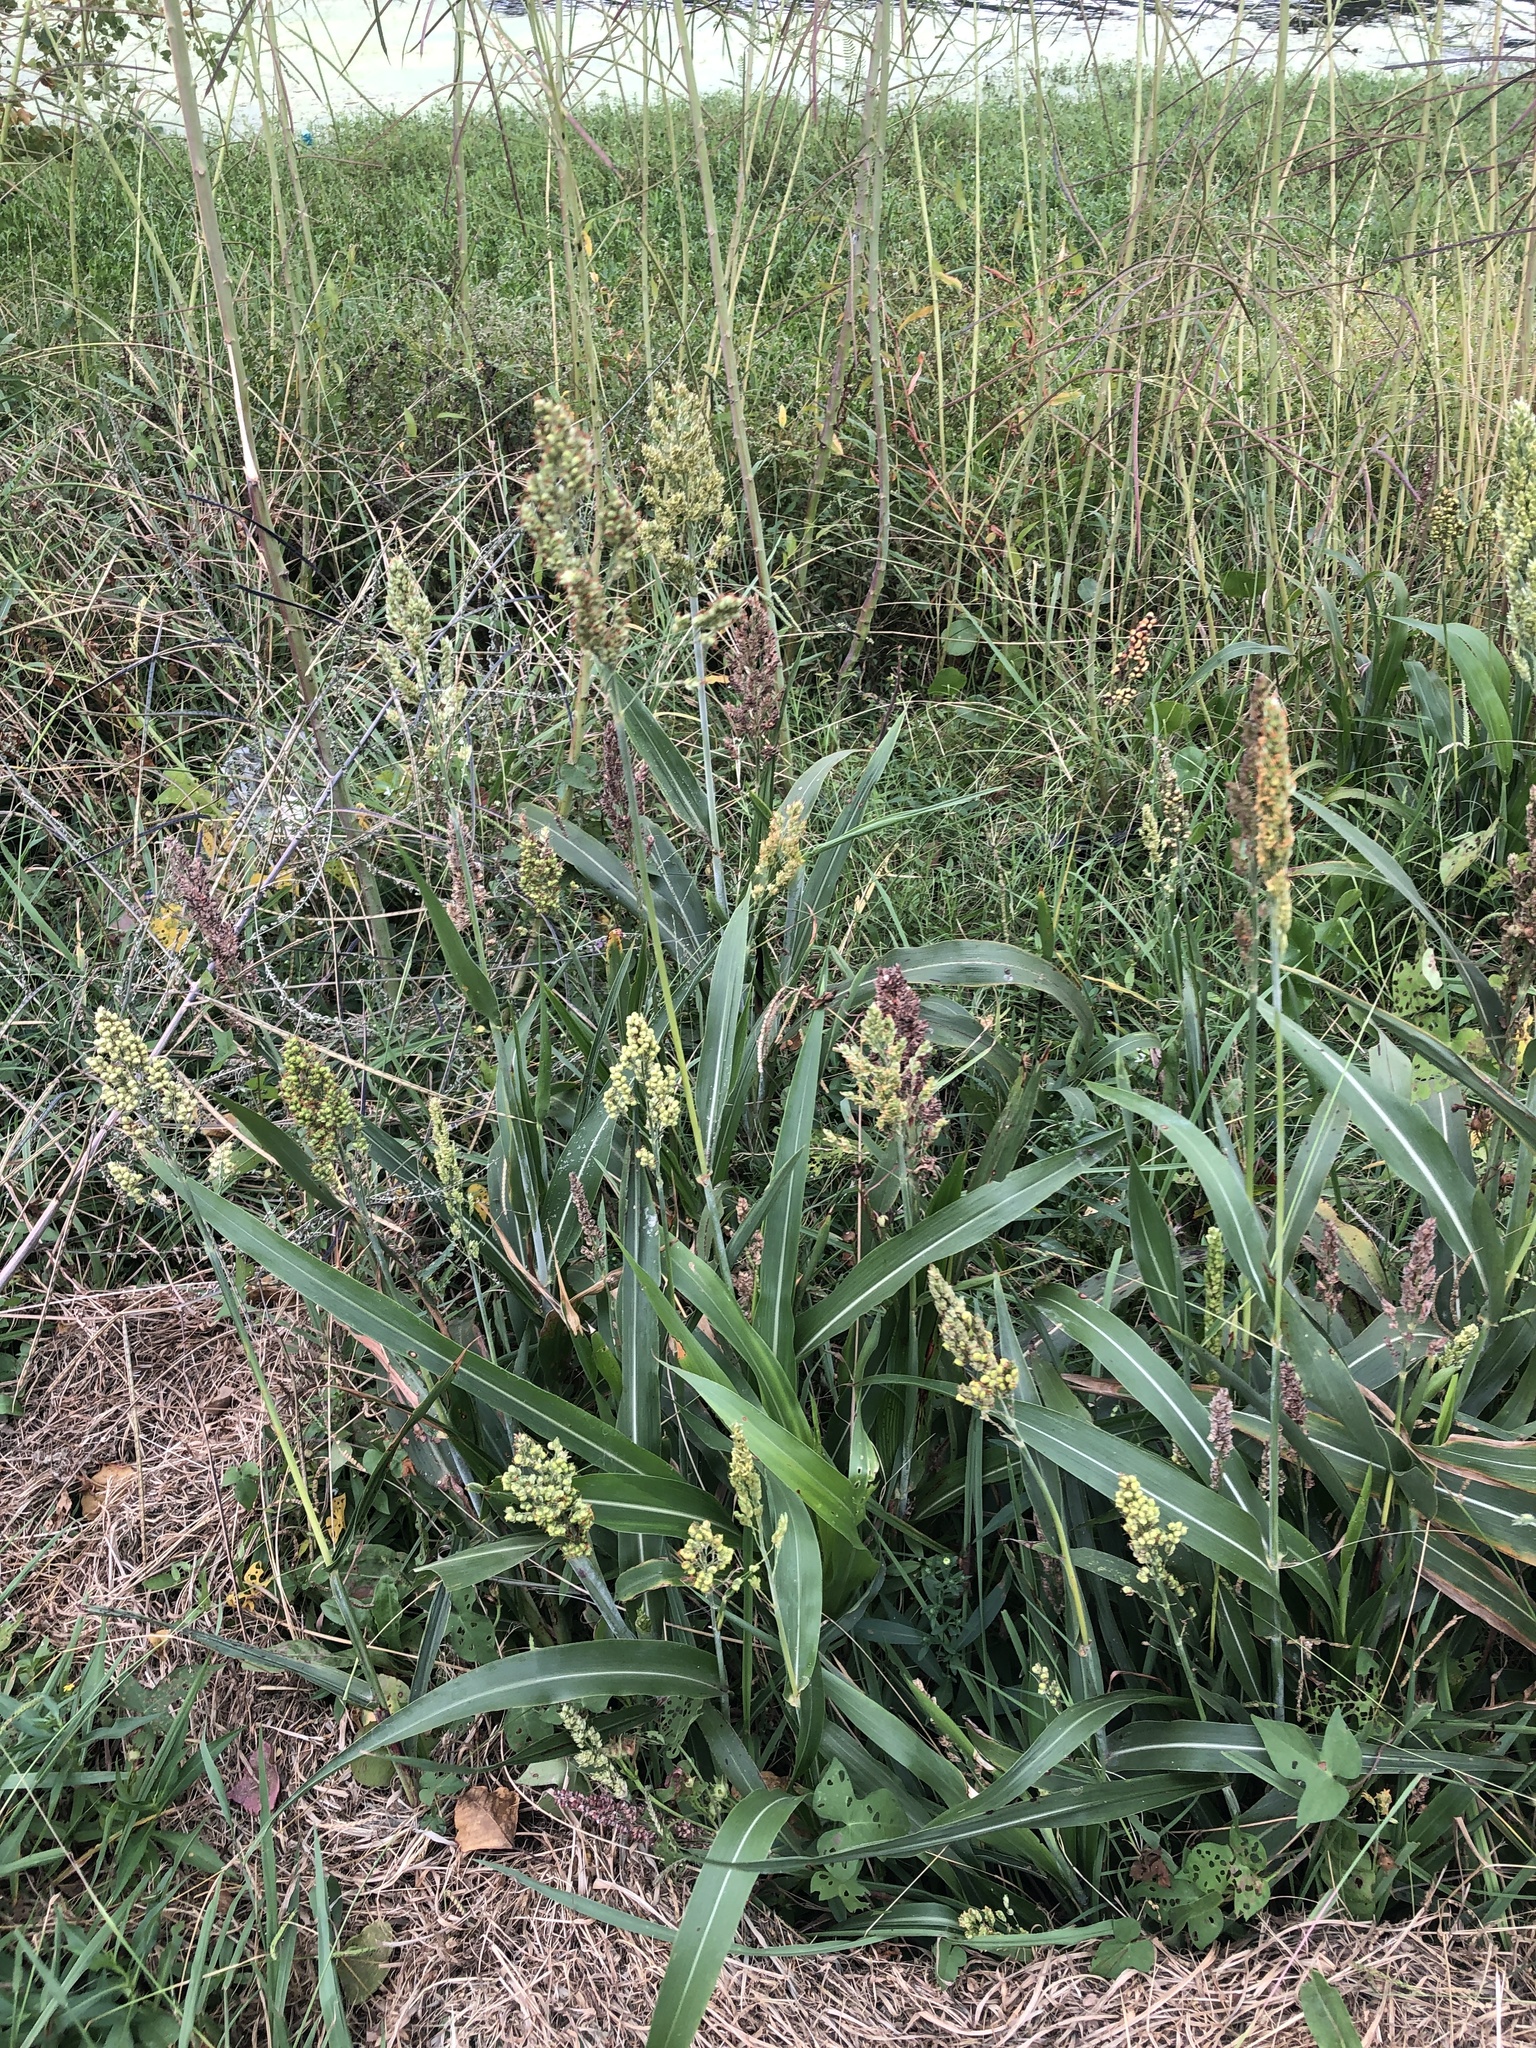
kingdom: Plantae
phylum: Tracheophyta
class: Liliopsida
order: Poales
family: Poaceae
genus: Sorghum
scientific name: Sorghum bicolor
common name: Sorghum
